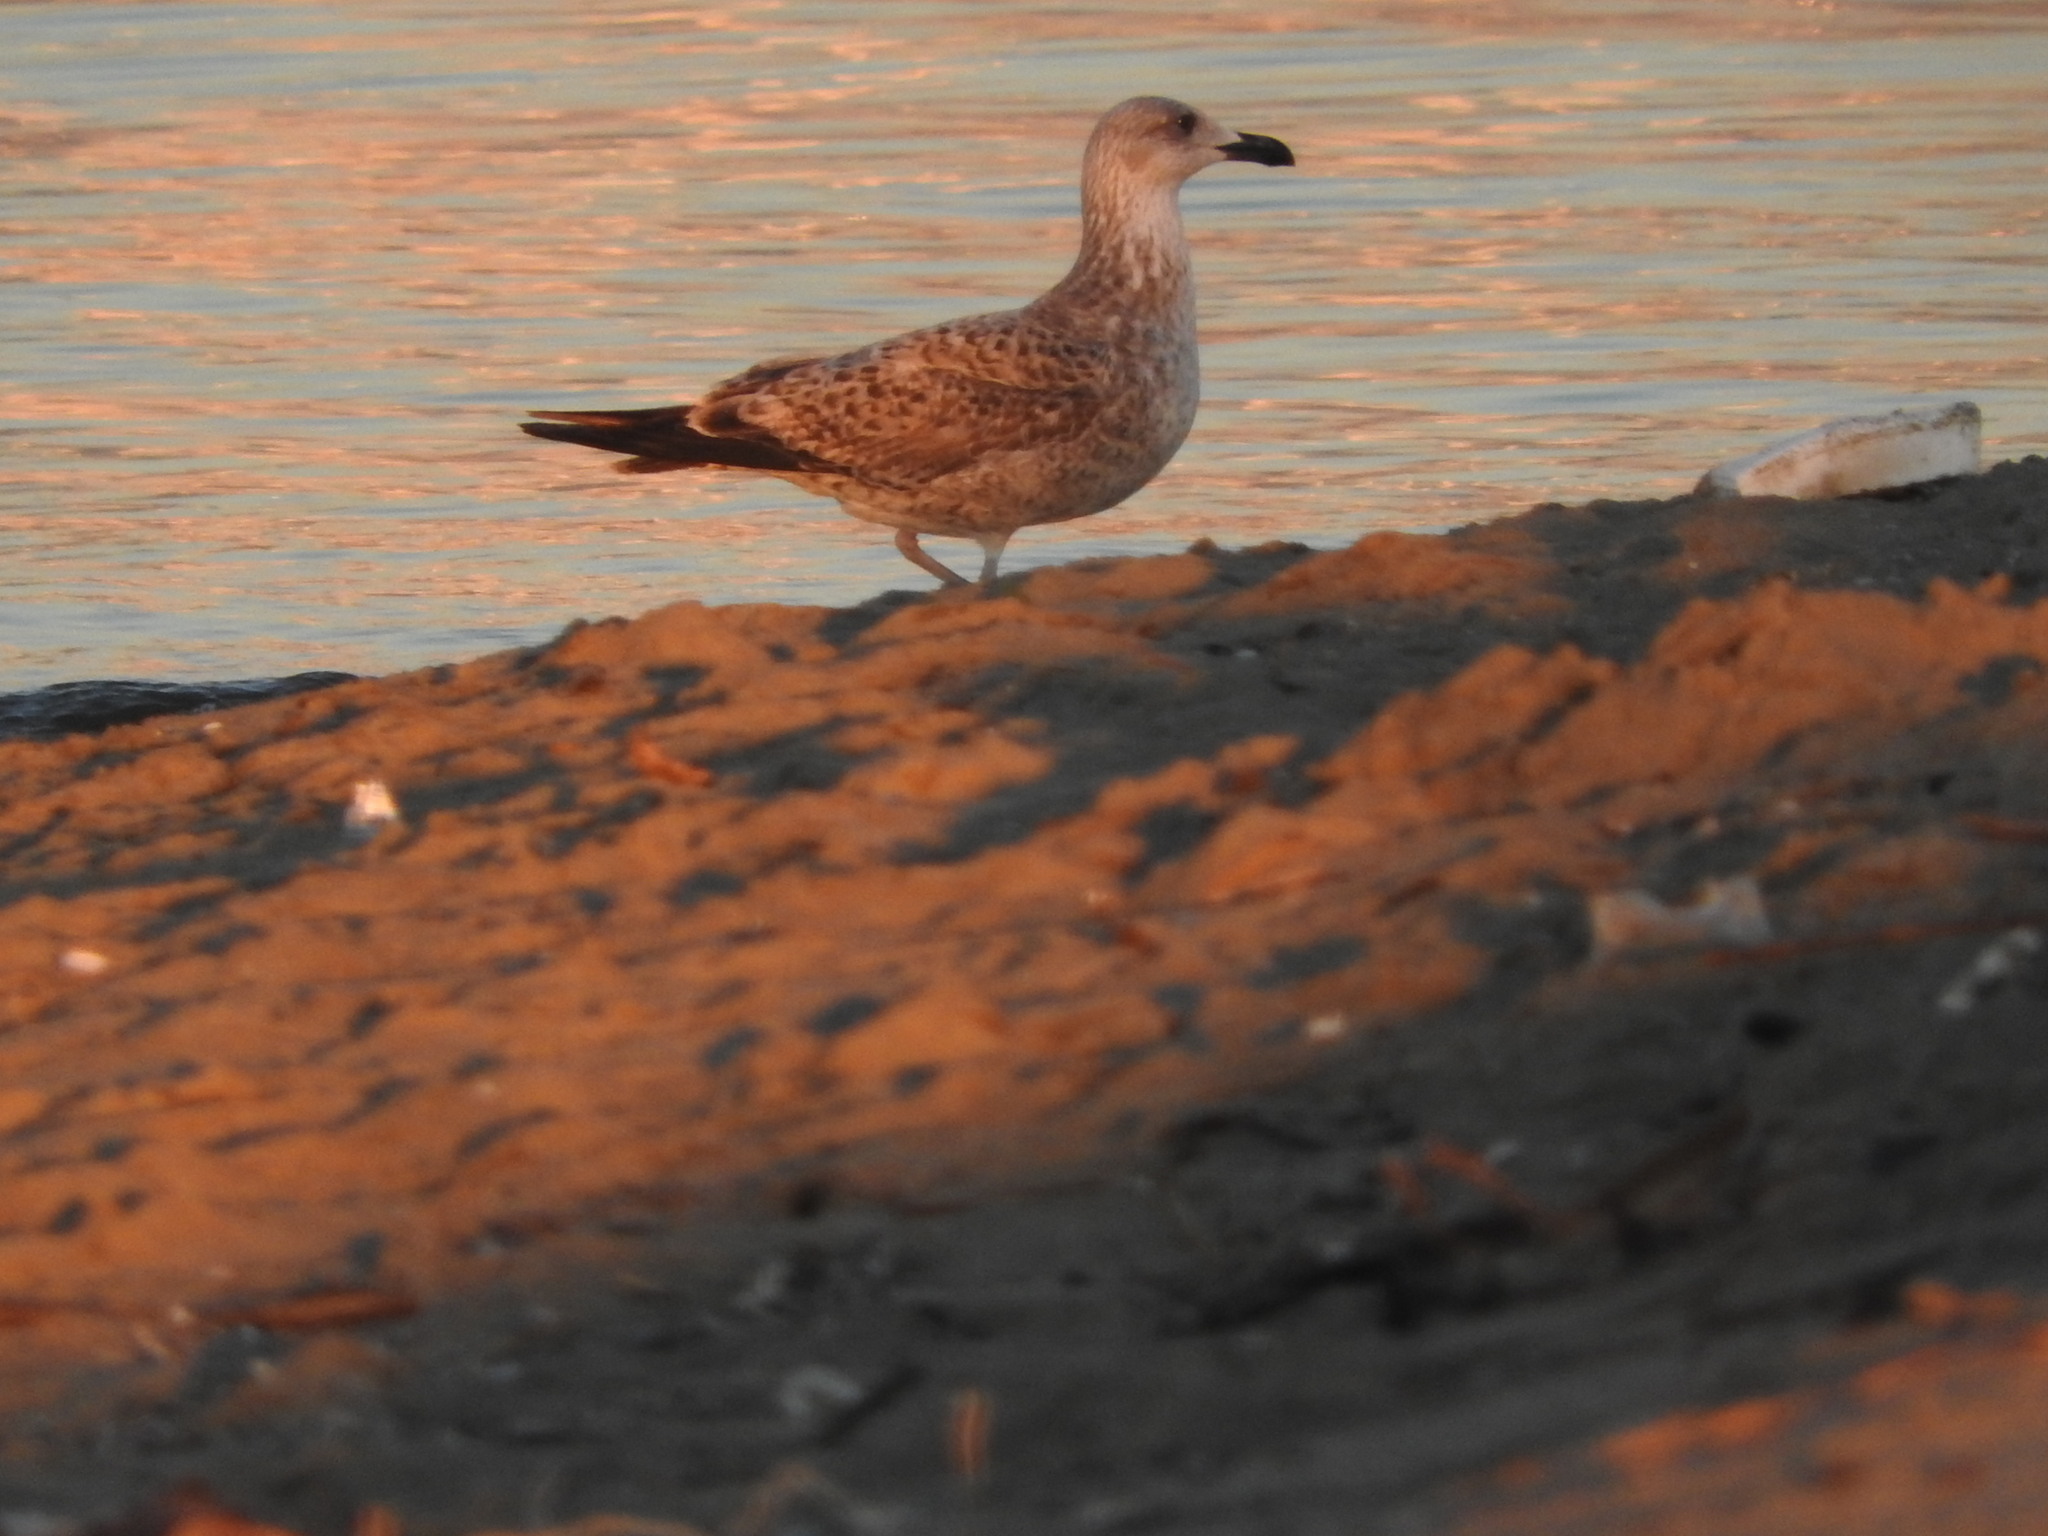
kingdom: Animalia
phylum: Chordata
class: Aves
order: Charadriiformes
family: Laridae
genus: Larus
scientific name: Larus michahellis
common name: Yellow-legged gull
